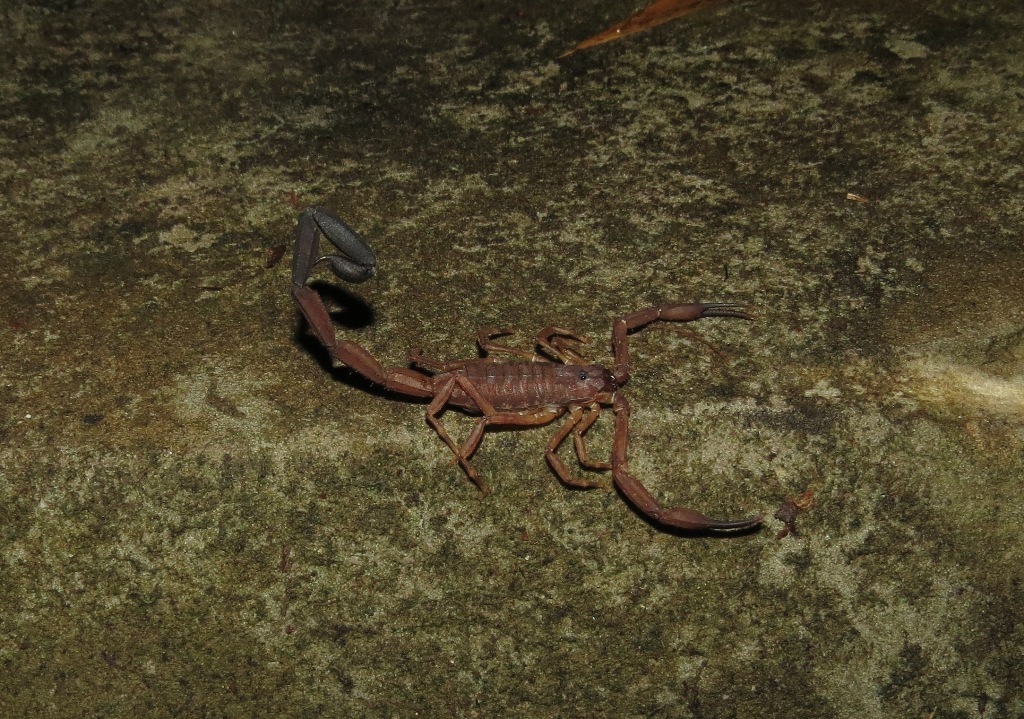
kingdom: Animalia
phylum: Arthropoda
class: Arachnida
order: Scorpiones
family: Buthidae
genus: Tityus
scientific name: Tityus tenuicauda
